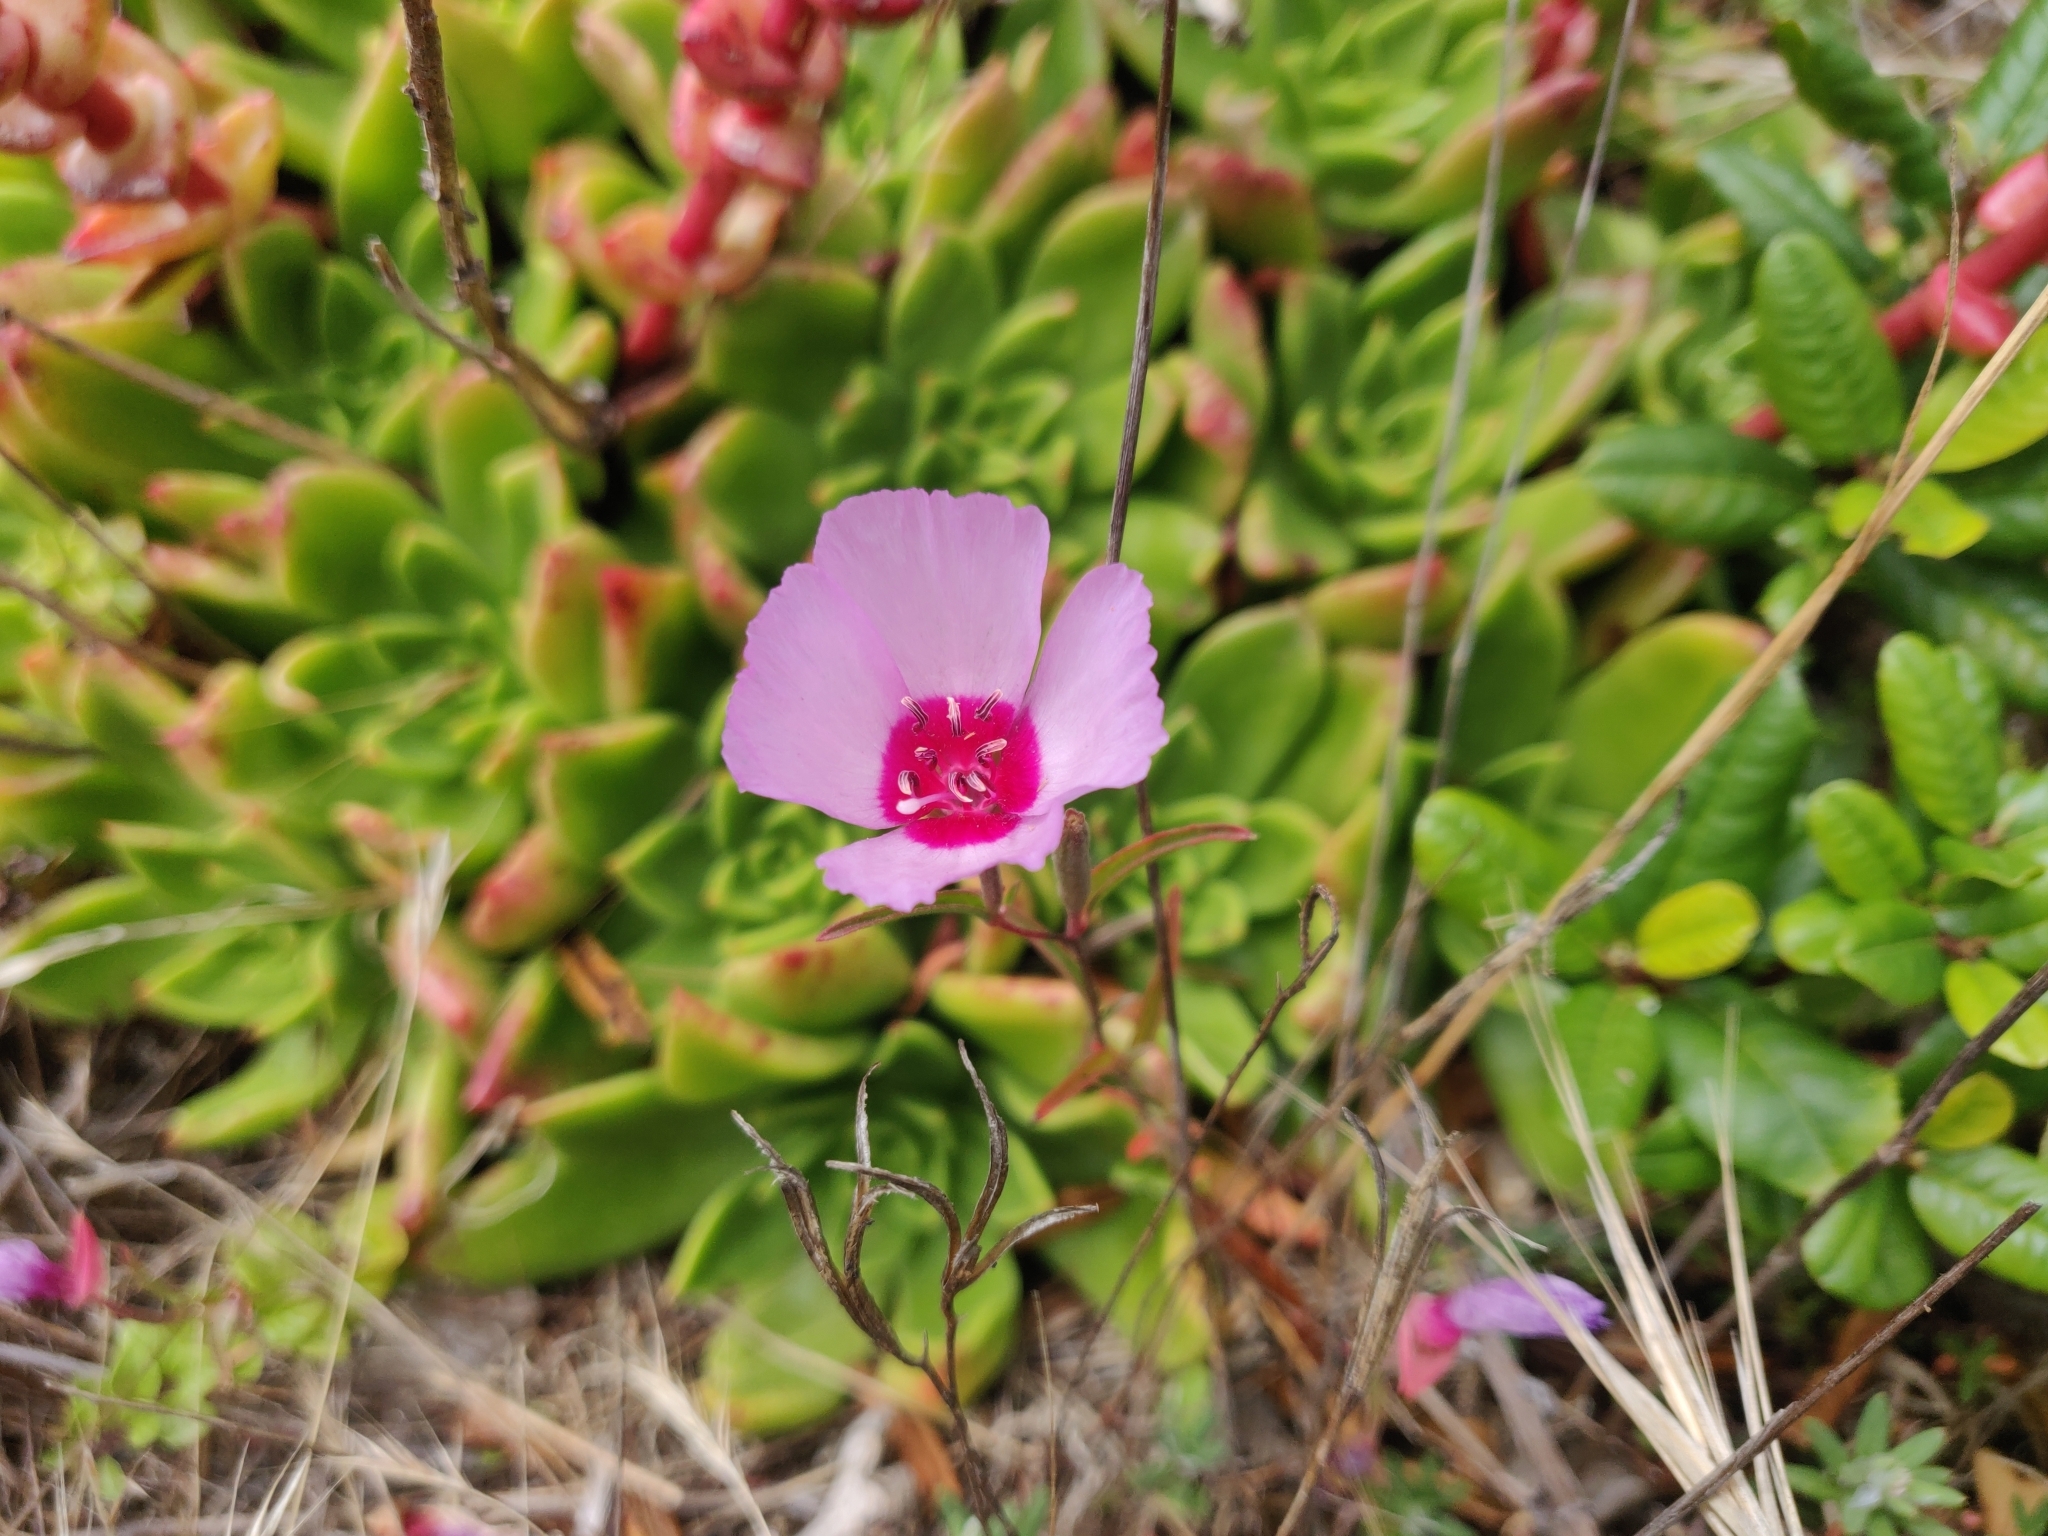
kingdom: Plantae
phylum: Tracheophyta
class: Magnoliopsida
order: Myrtales
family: Onagraceae
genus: Clarkia
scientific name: Clarkia rubicunda
